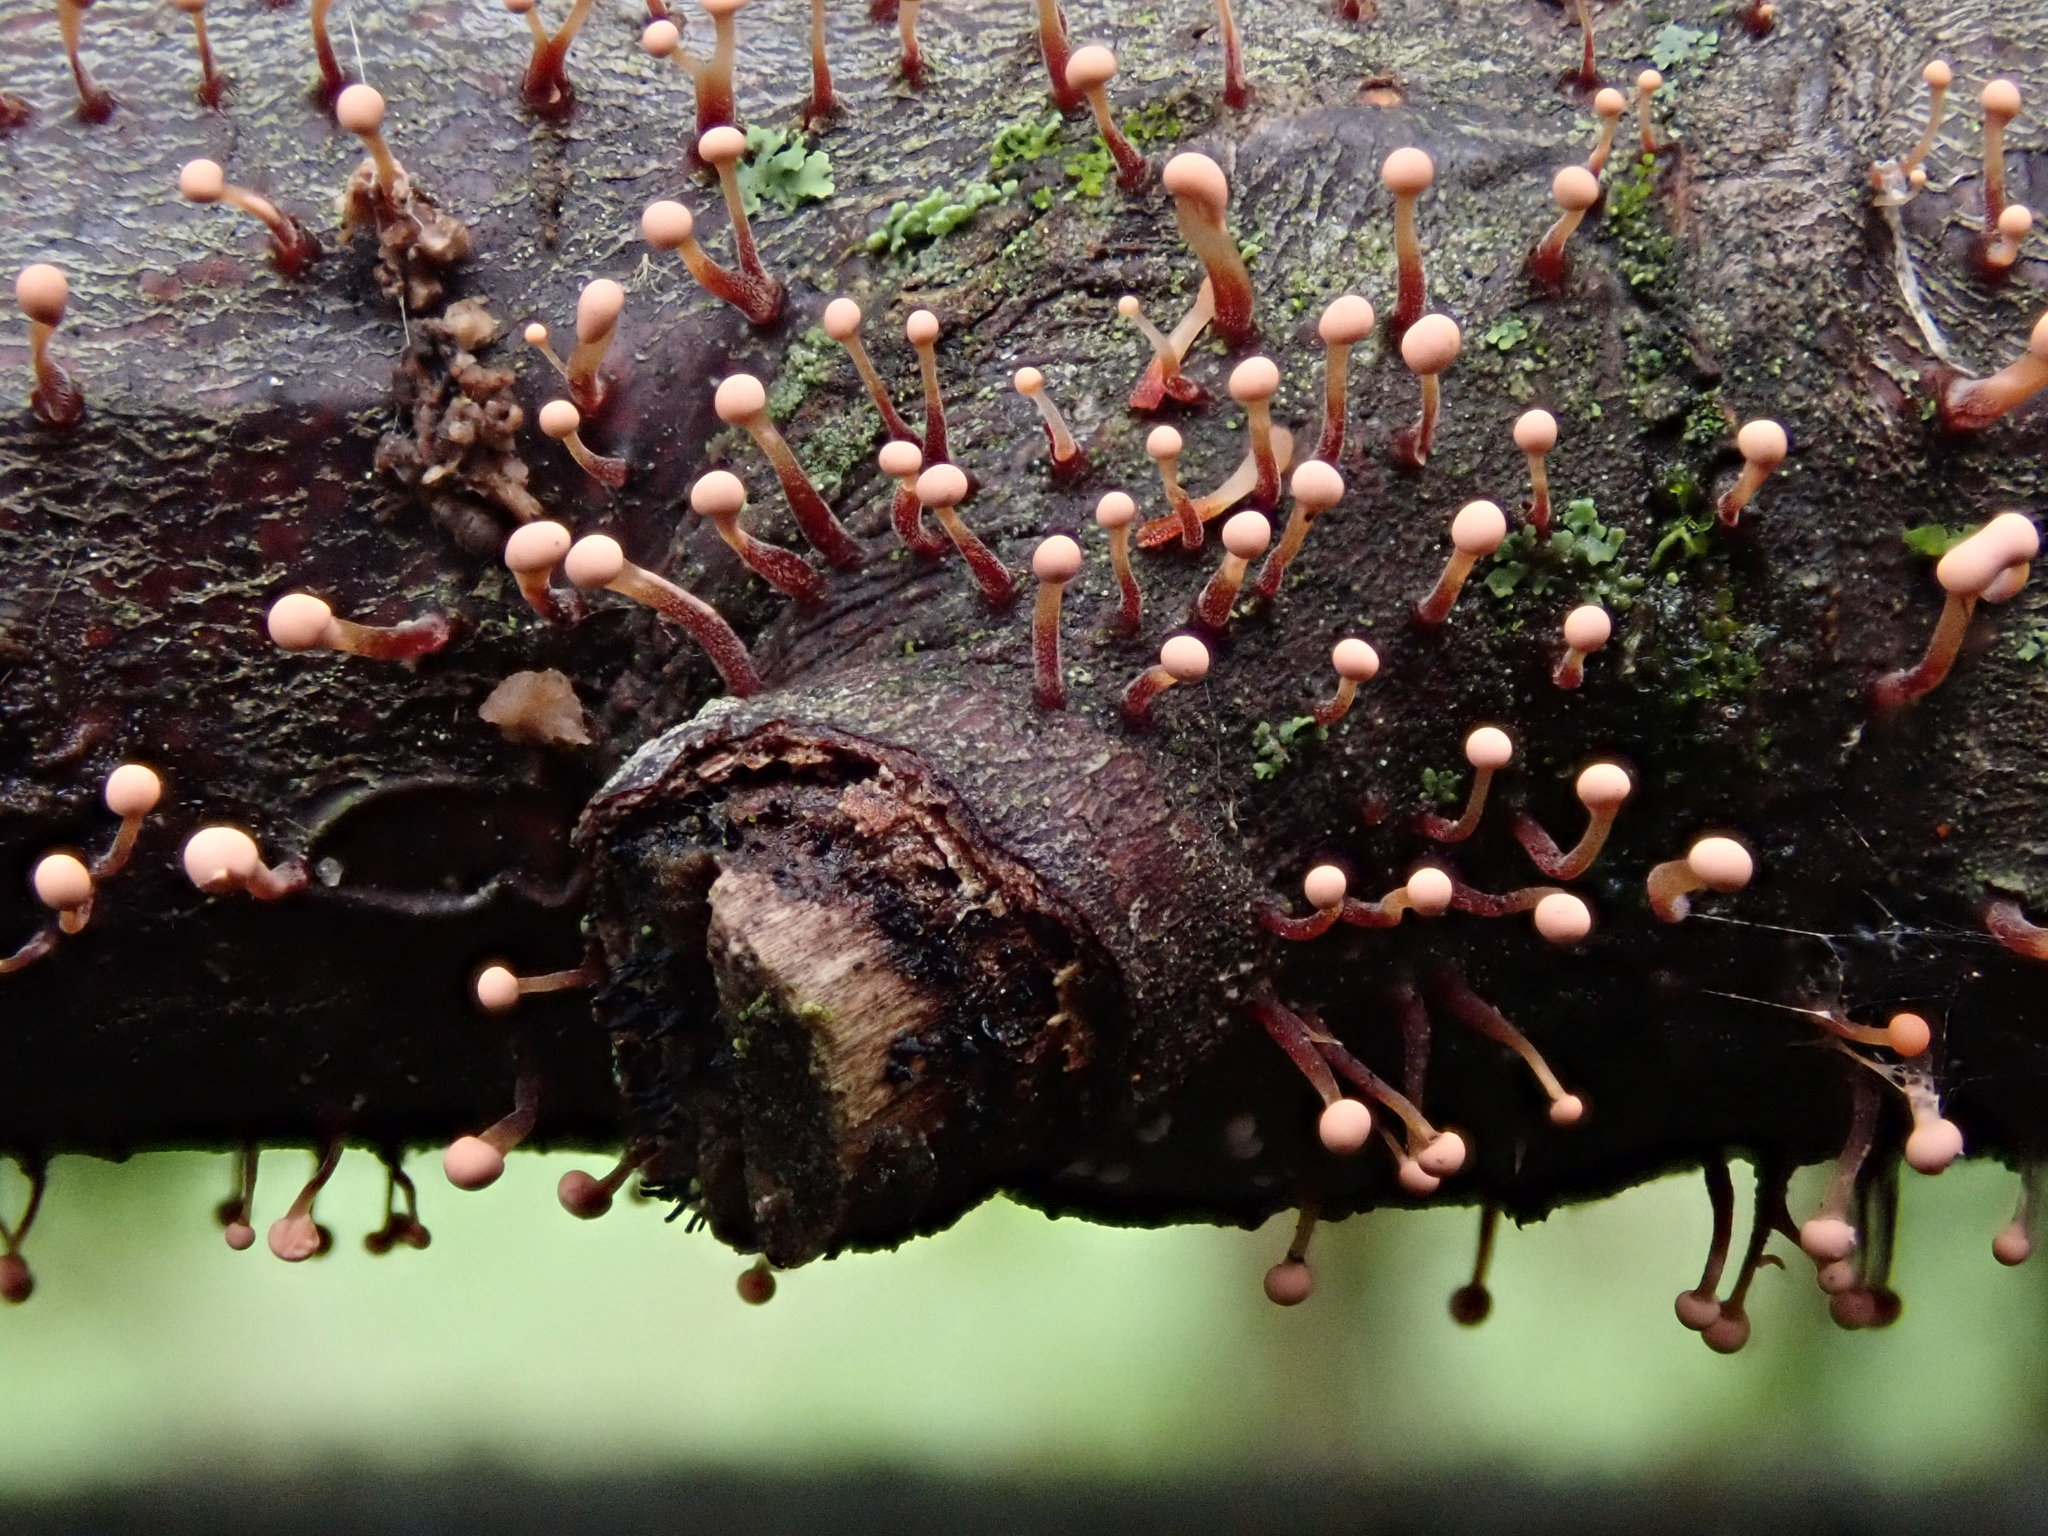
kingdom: Fungi
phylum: Ascomycota
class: Sordariomycetes
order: Hypocreales
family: Nectriaceae
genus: Nectria
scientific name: Nectria pseudotrichia
